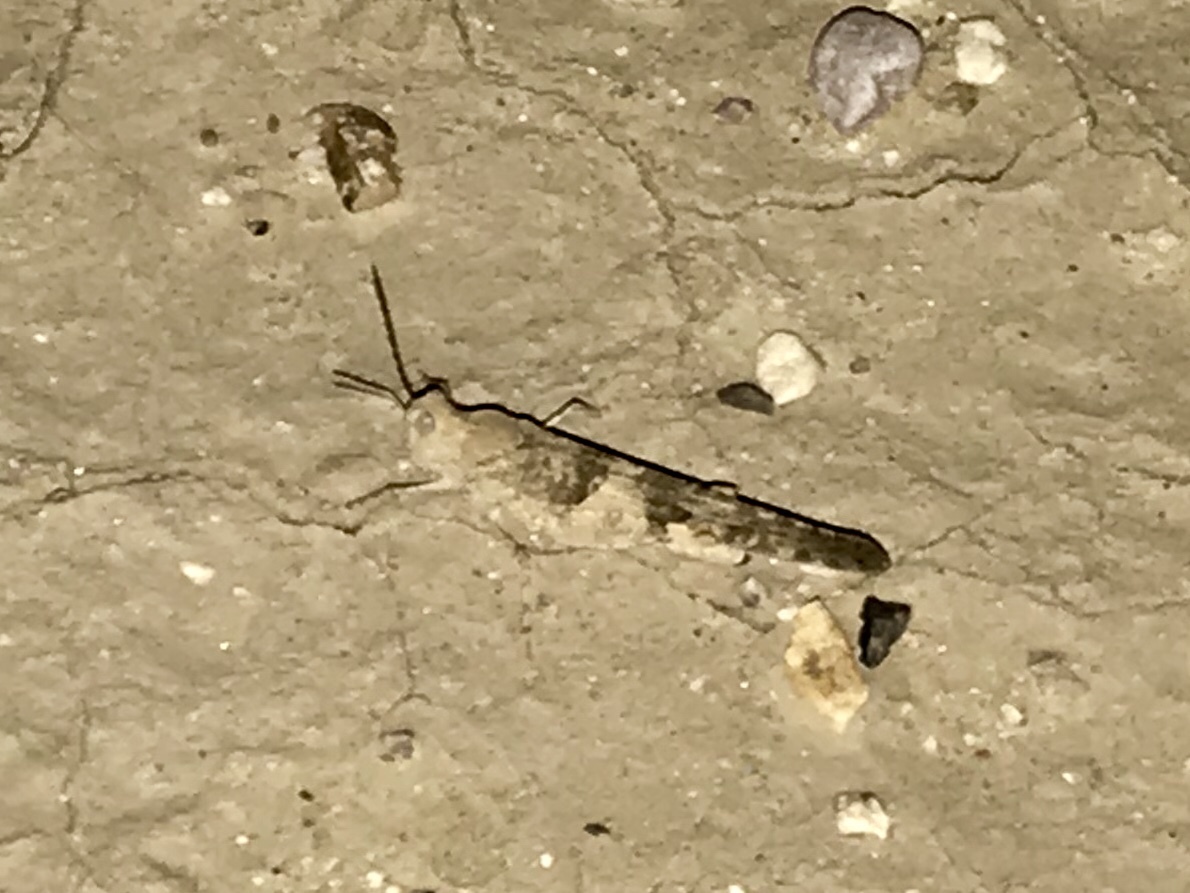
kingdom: Animalia
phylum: Arthropoda
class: Insecta
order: Orthoptera
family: Acrididae
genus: Trimerotropis
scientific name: Trimerotropis pallidipennis
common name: Pallid-winged grasshopper
